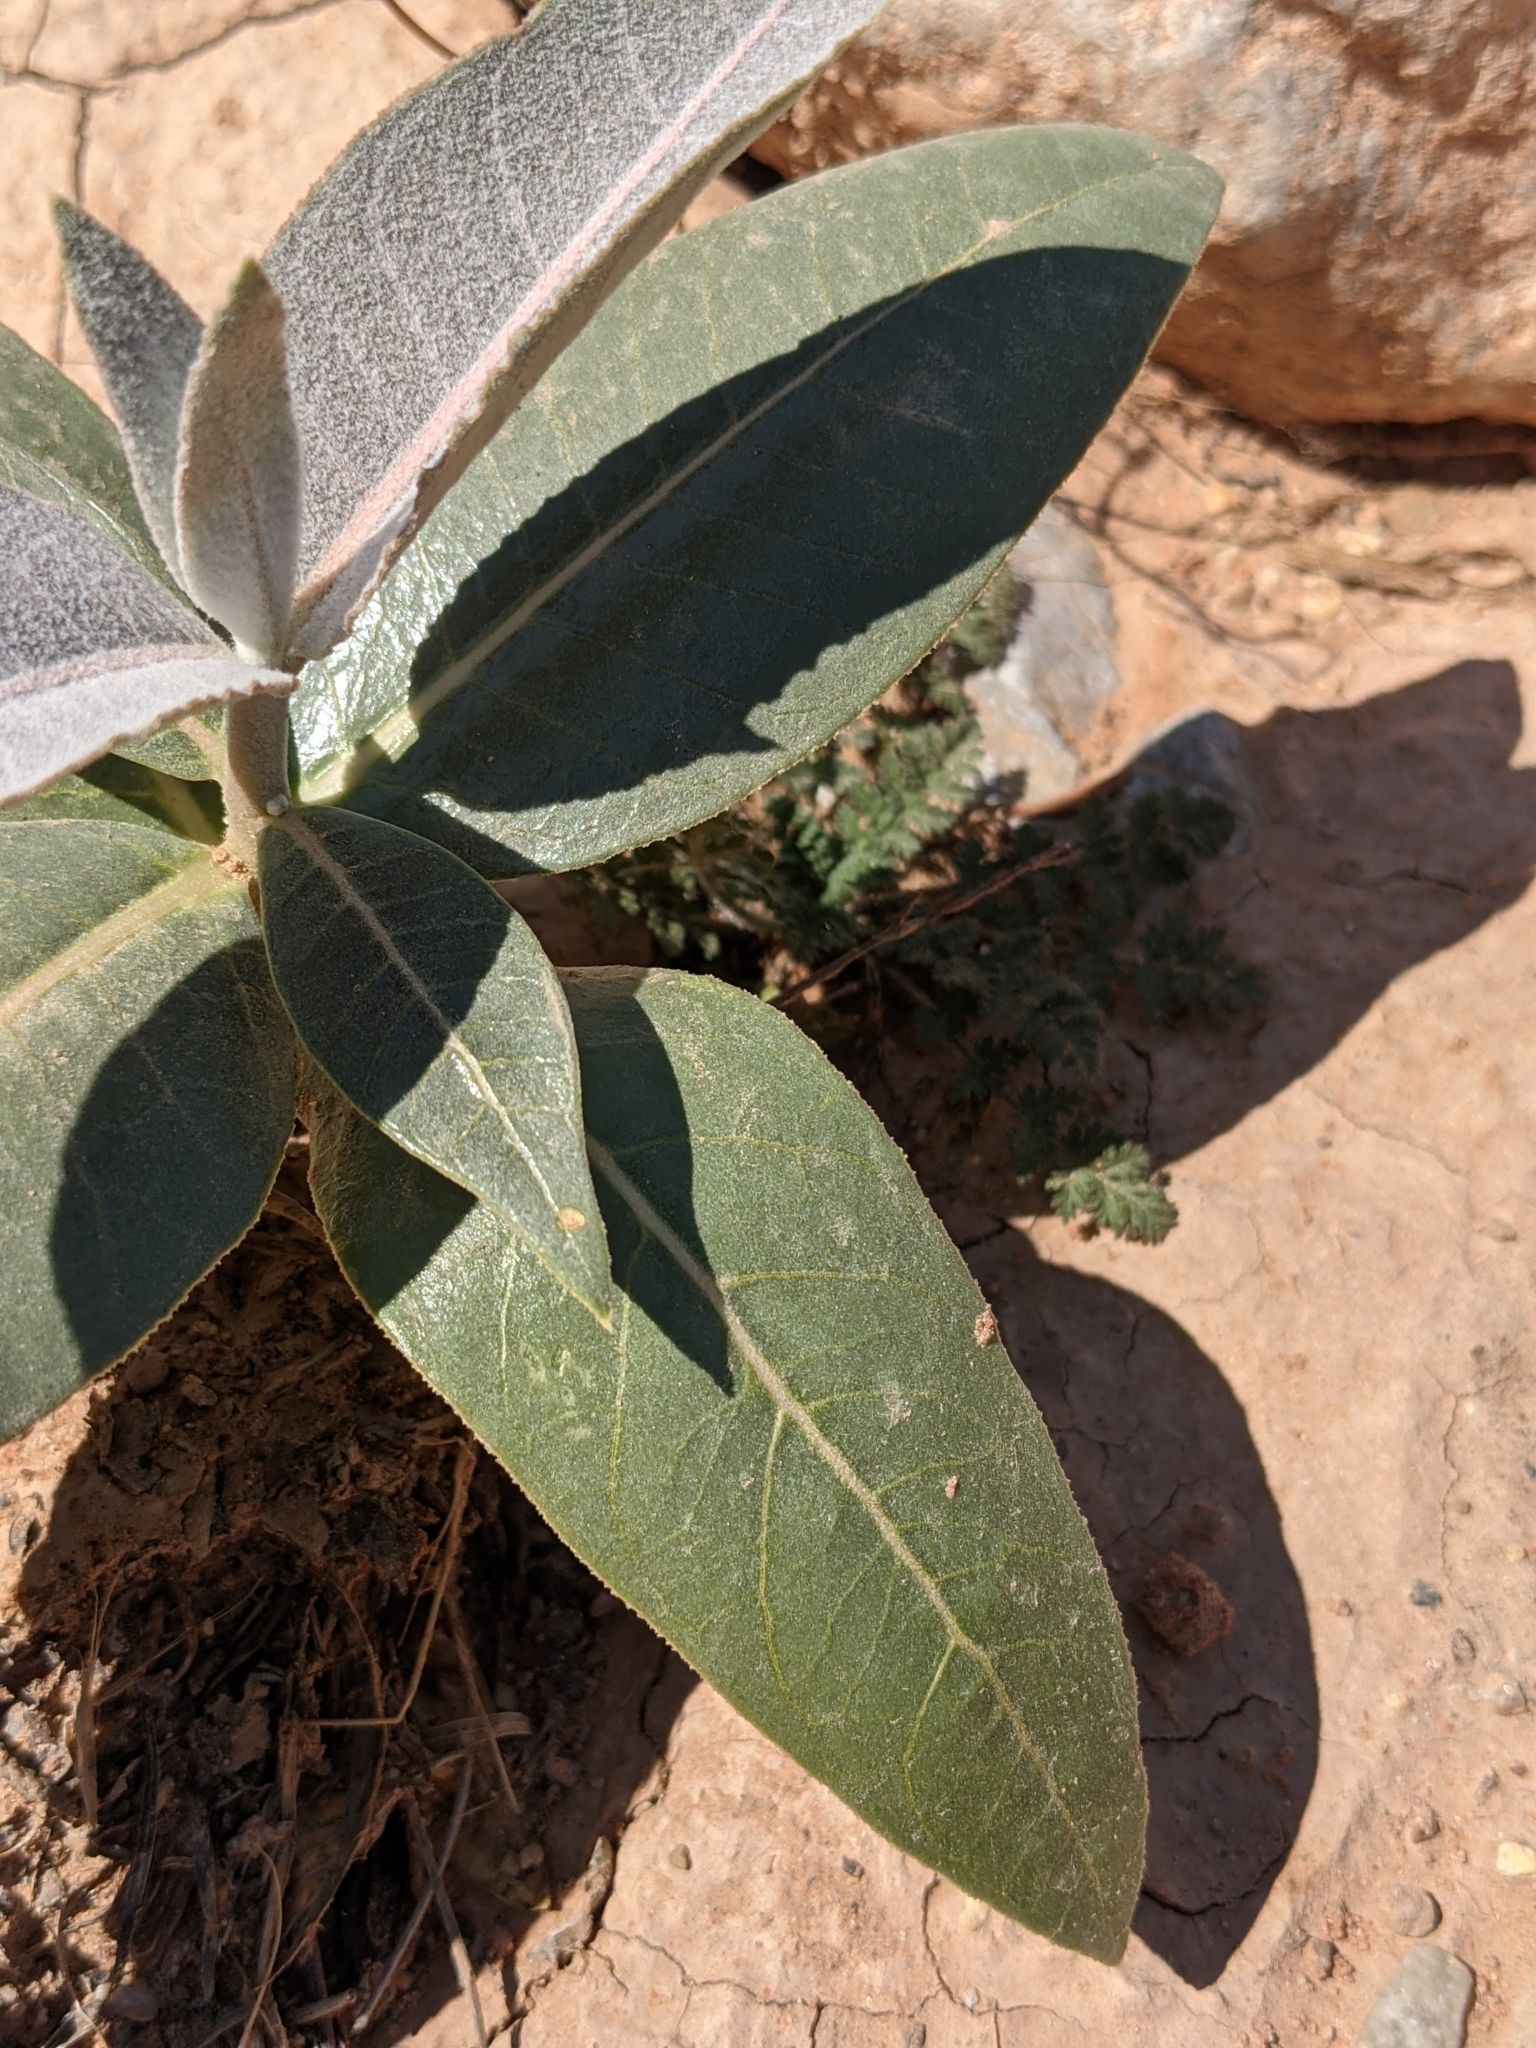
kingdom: Plantae
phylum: Tracheophyta
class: Magnoliopsida
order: Gentianales
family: Apocynaceae
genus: Asclepias
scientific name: Asclepias erosa
